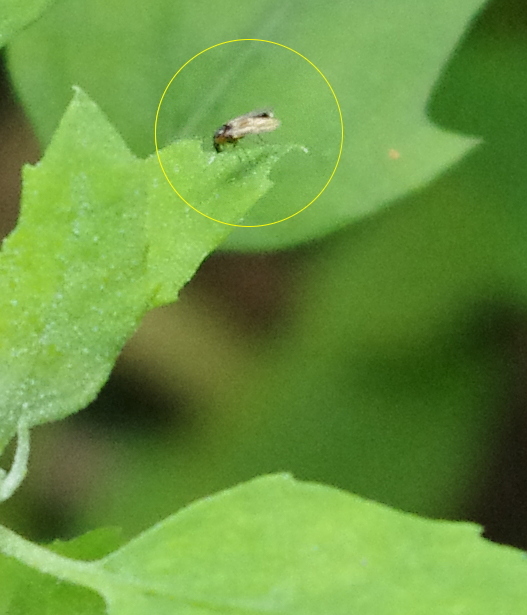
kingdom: Animalia
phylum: Arthropoda
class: Insecta
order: Diptera
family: Chironomidae
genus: Cricotopus
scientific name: Cricotopus
